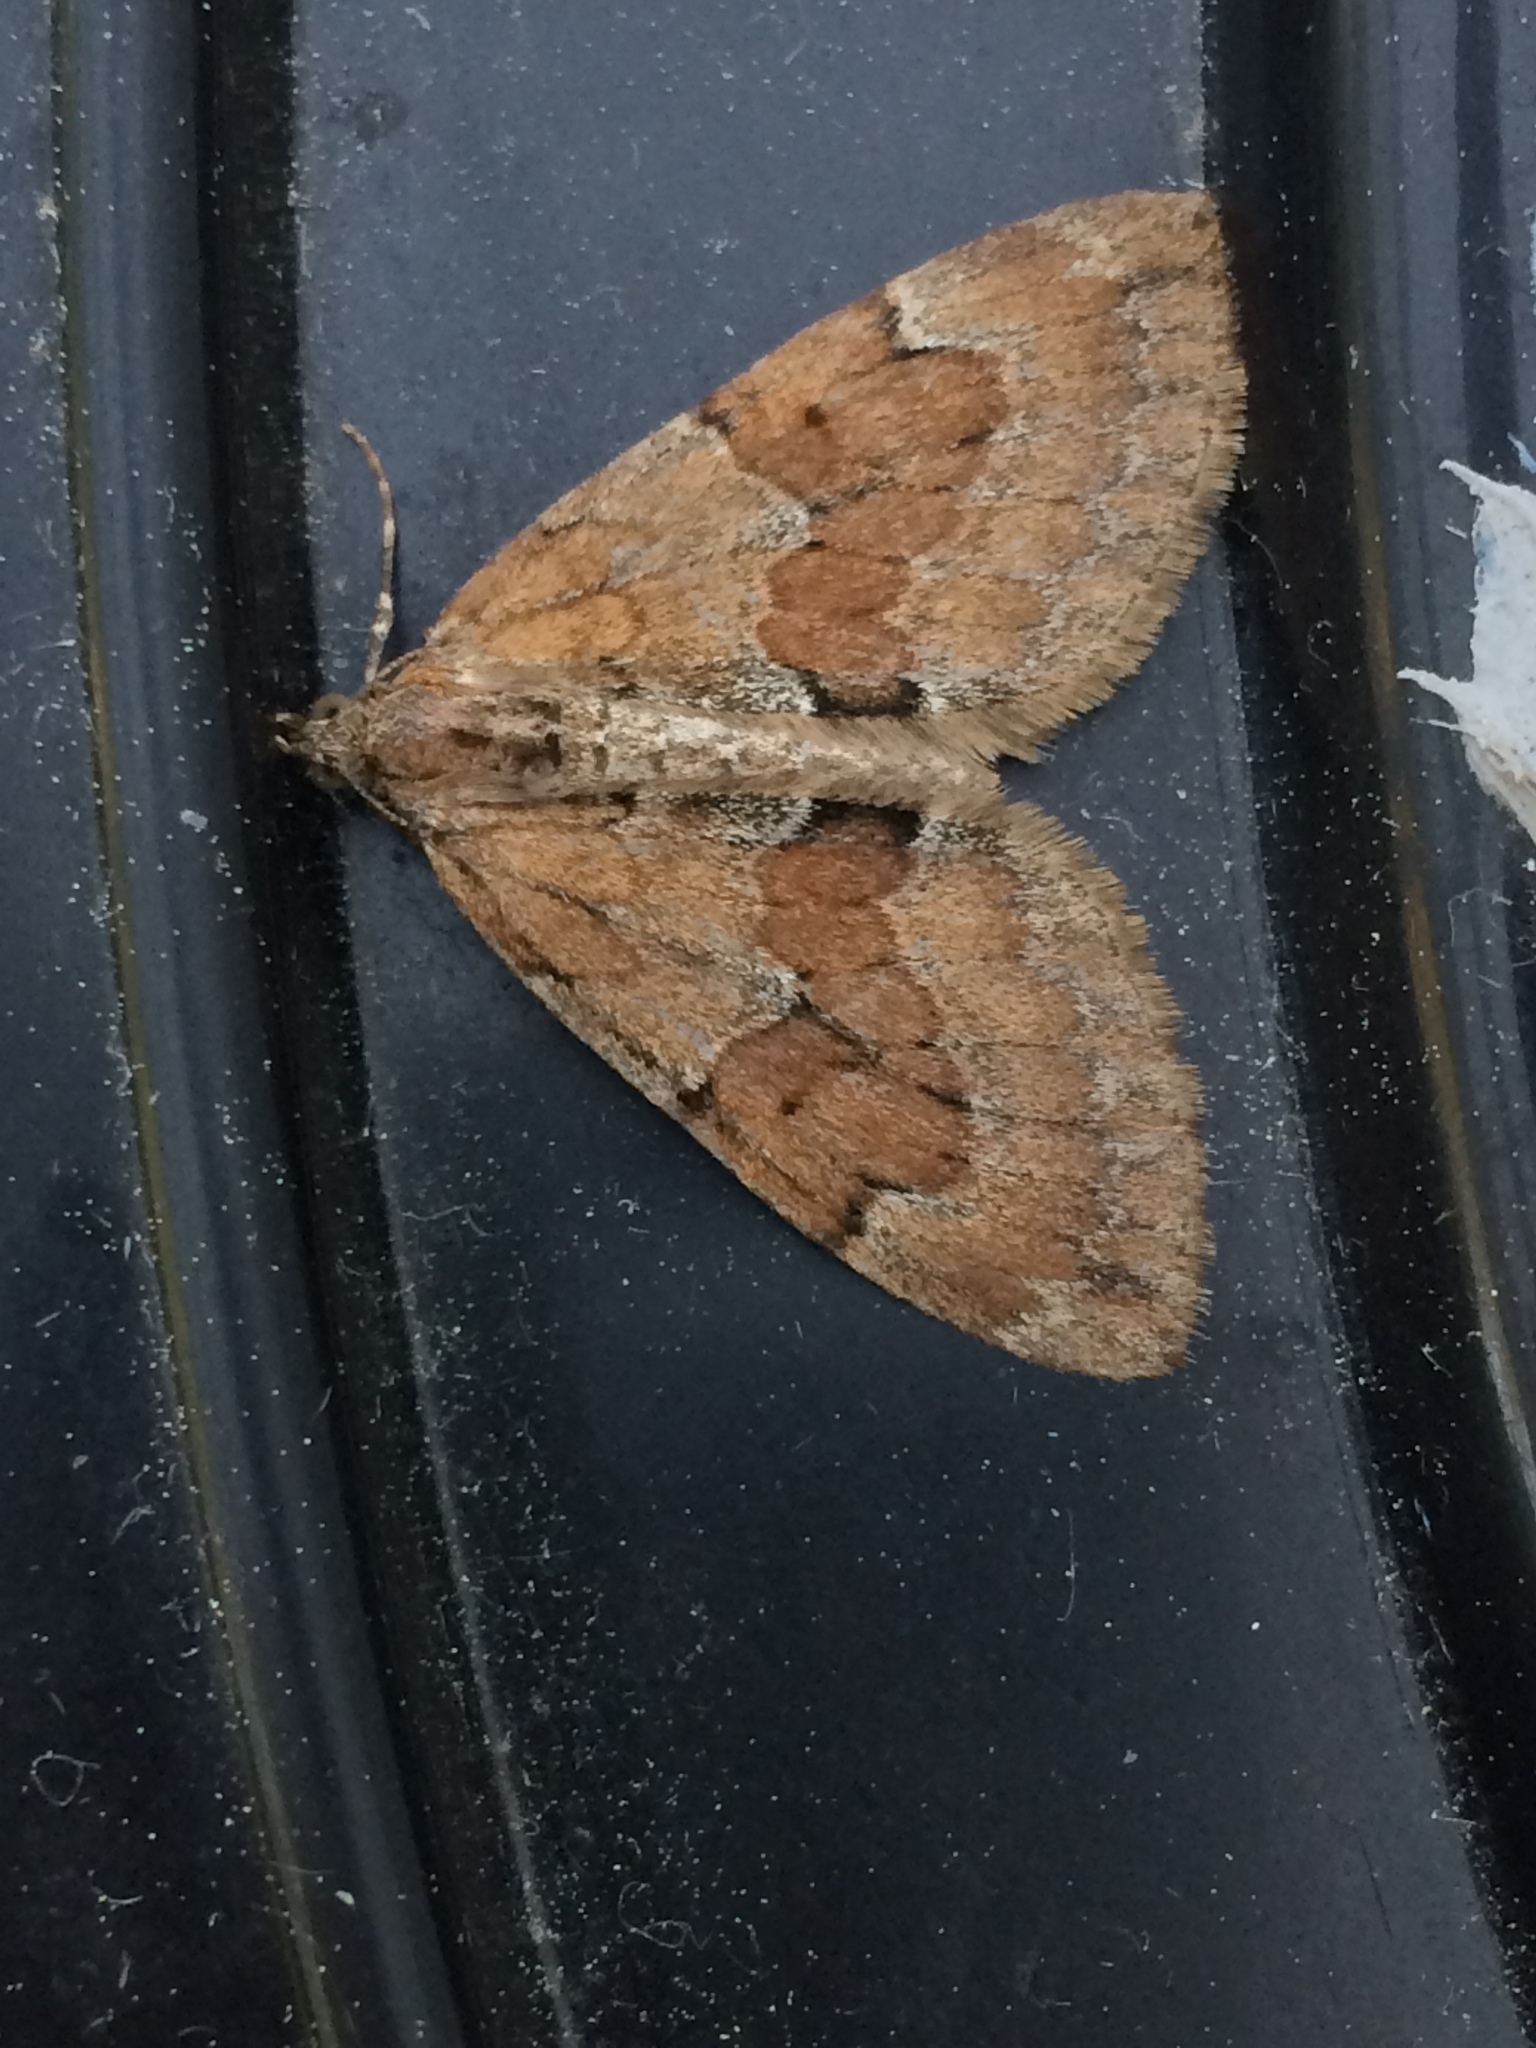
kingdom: Animalia
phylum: Arthropoda
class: Insecta
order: Lepidoptera
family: Geometridae
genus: Thera
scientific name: Thera obeliscata
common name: Grey pine carpet
